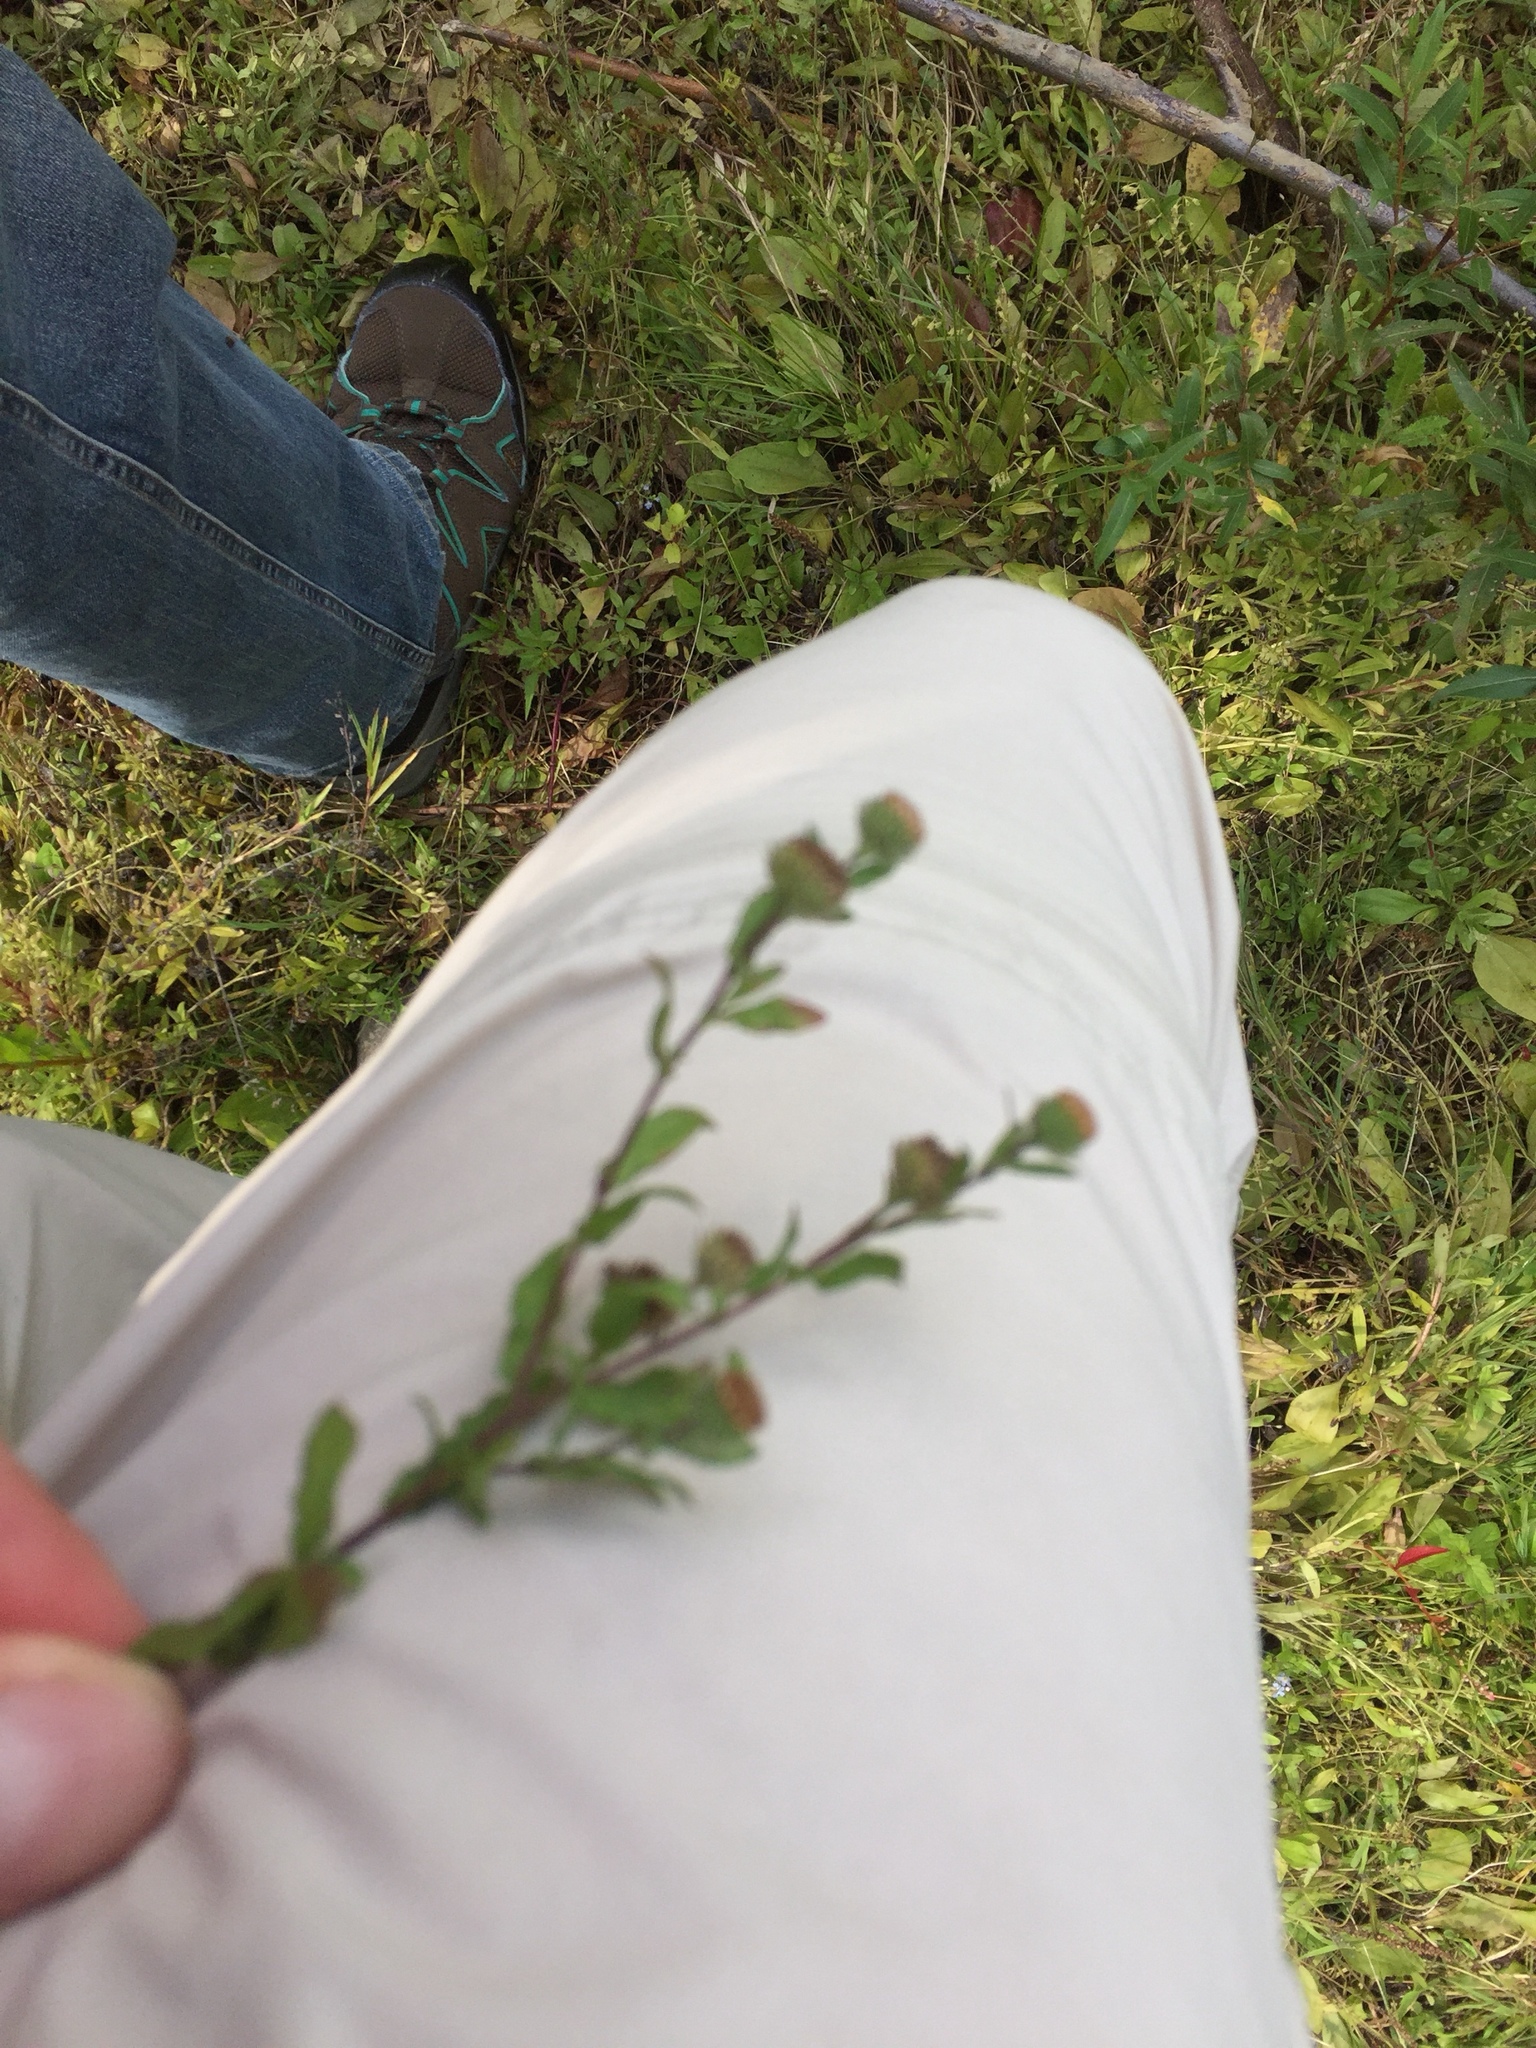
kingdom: Plantae
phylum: Tracheophyta
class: Magnoliopsida
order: Asterales
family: Asteraceae
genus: Pulicaria
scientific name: Pulicaria vulgaris
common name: Small fleabane
